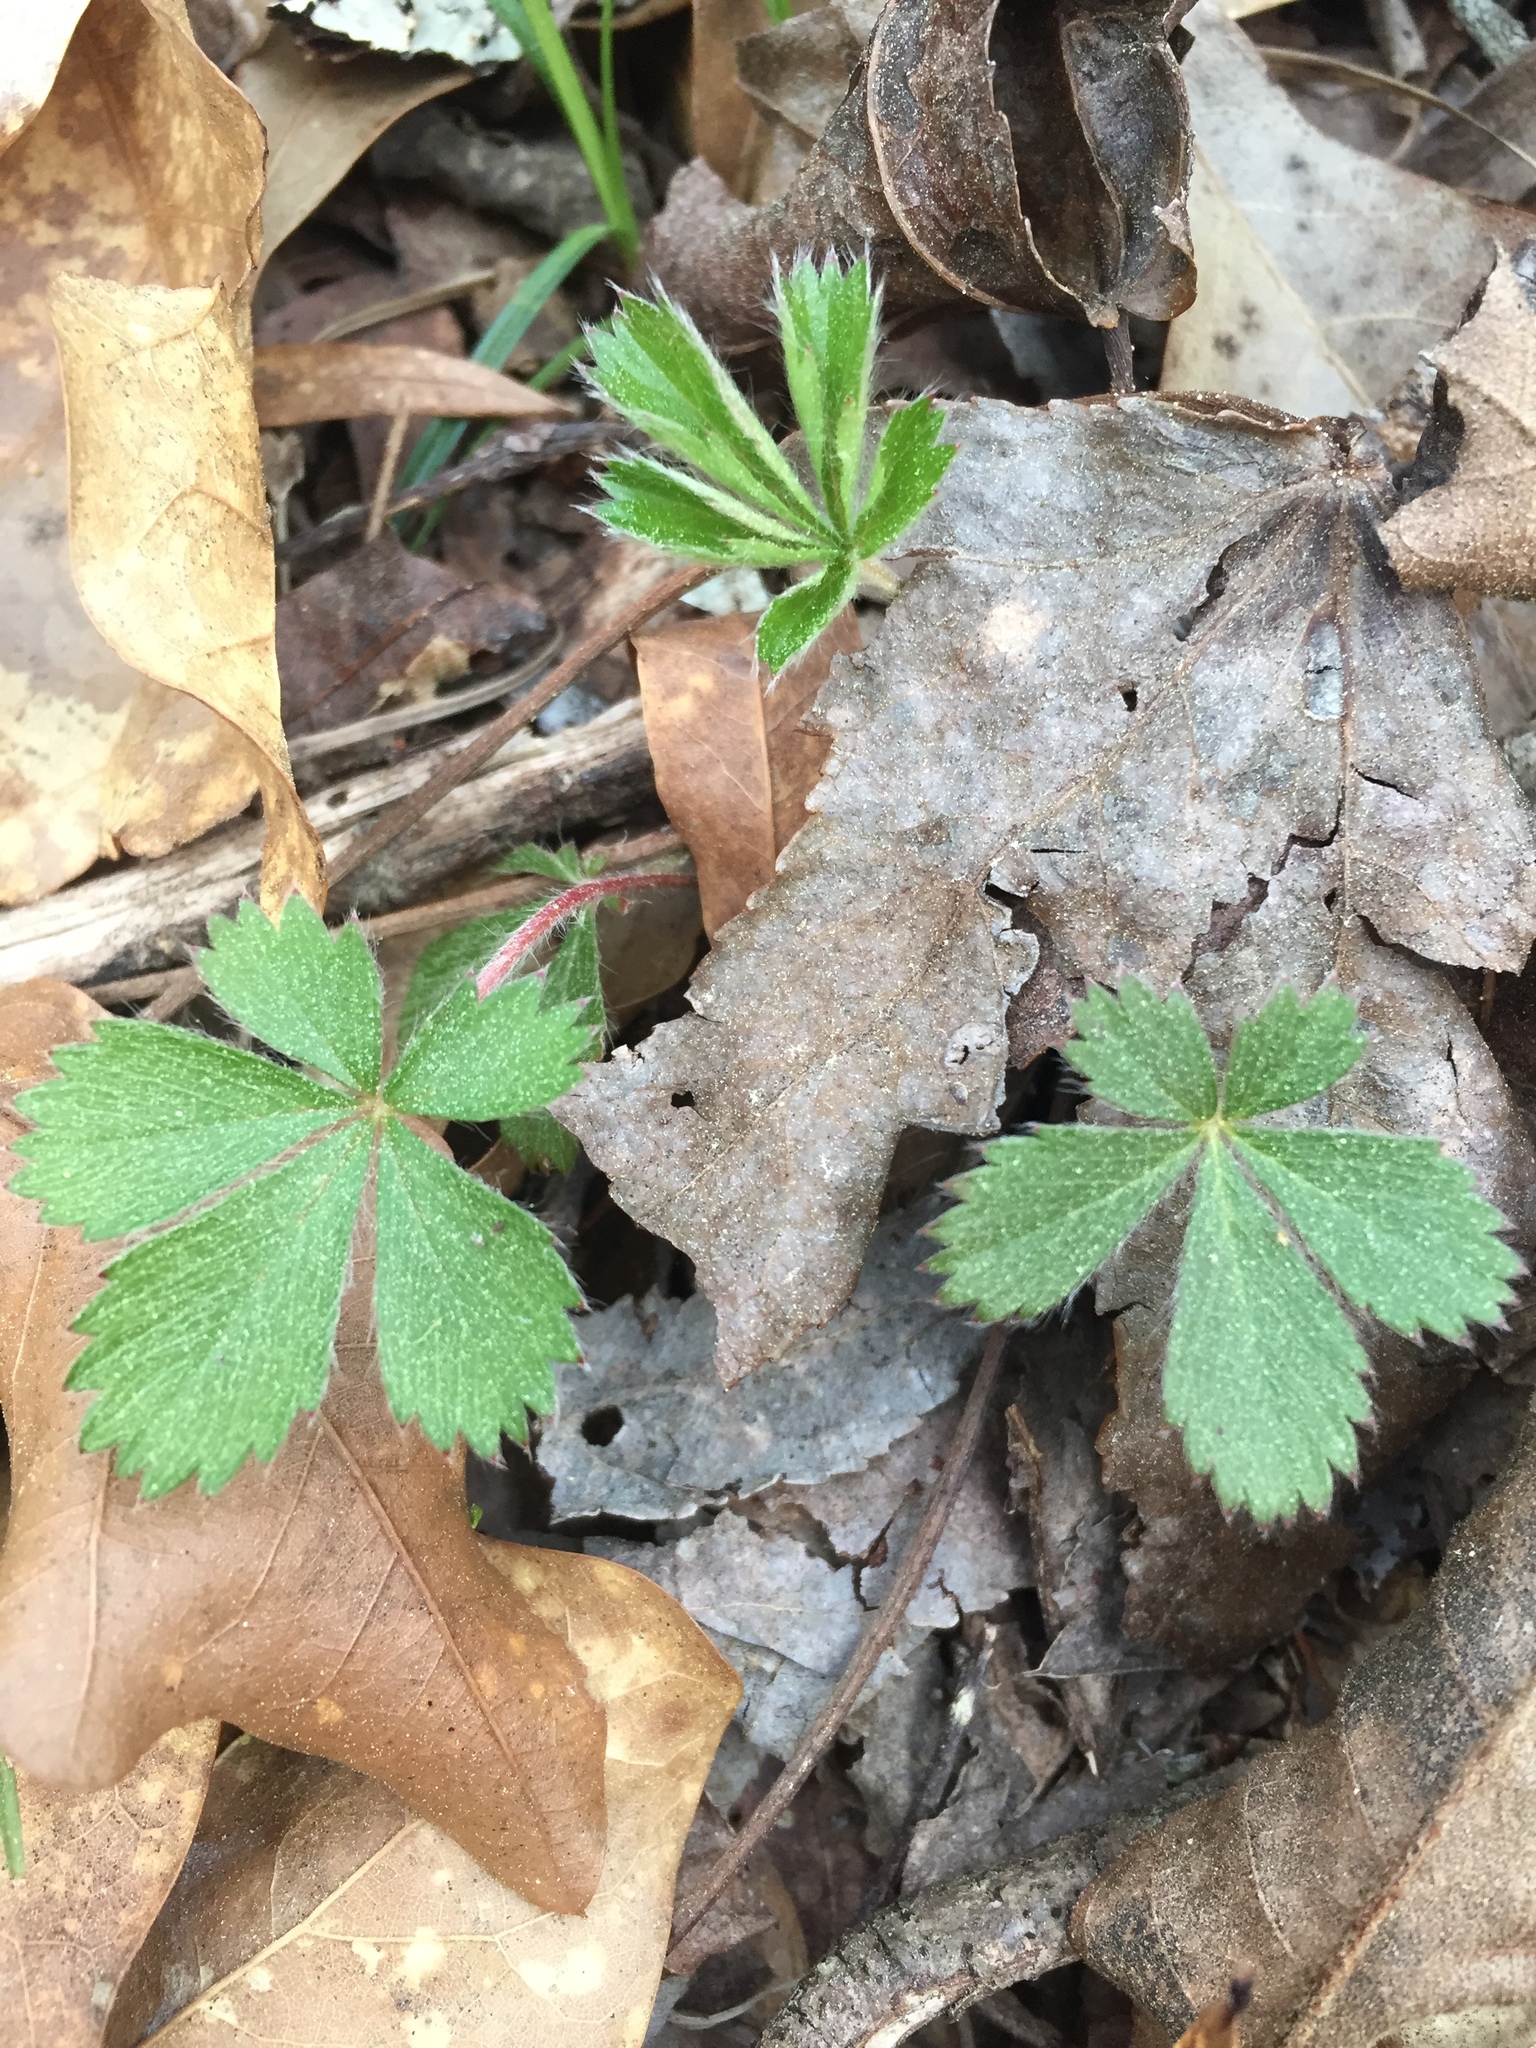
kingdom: Plantae
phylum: Tracheophyta
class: Magnoliopsida
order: Rosales
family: Rosaceae
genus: Potentilla
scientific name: Potentilla canadensis
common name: Canada cinquefoil
